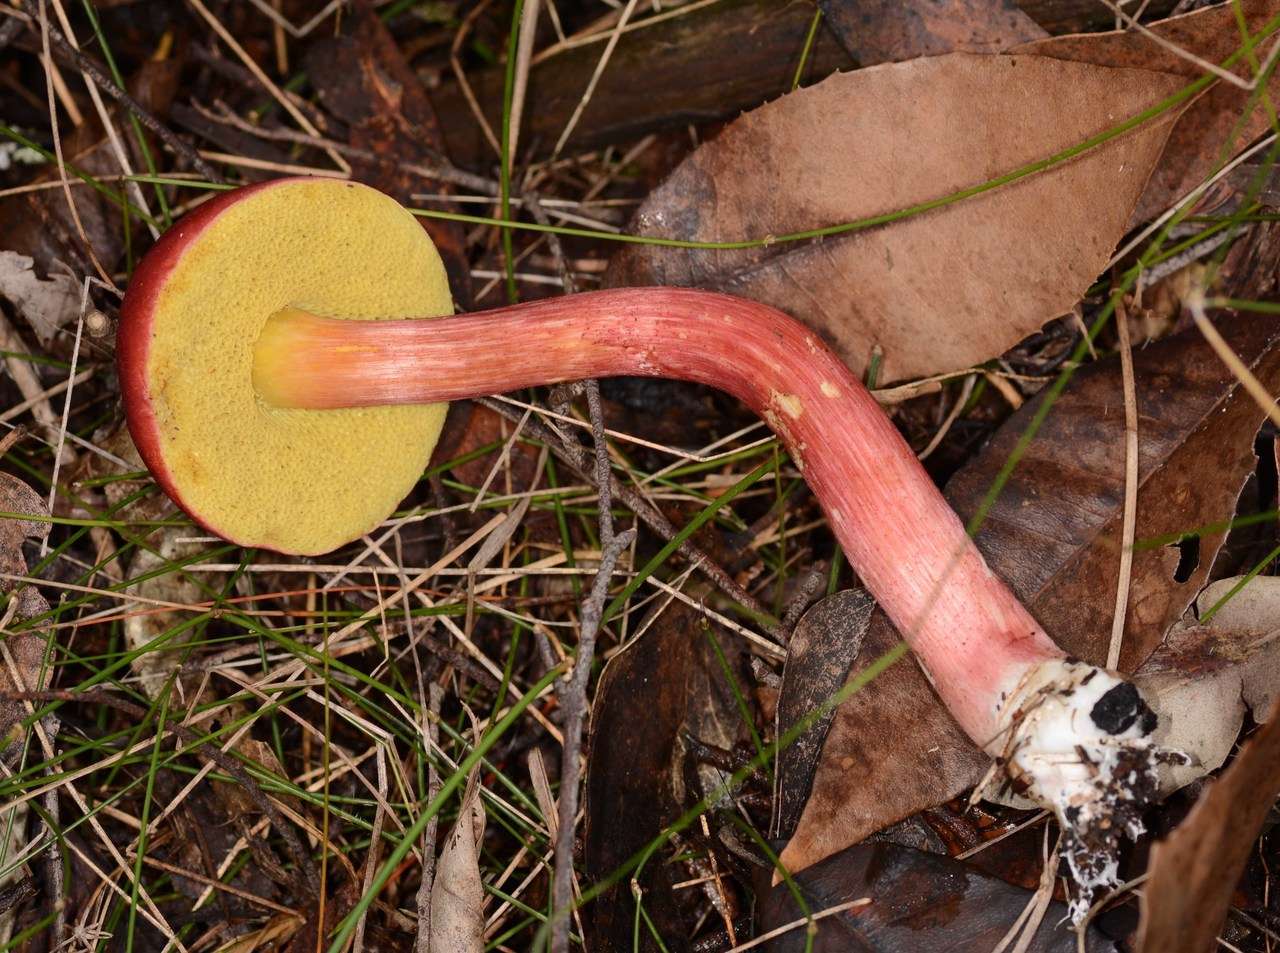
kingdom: Fungi
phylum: Basidiomycota
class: Agaricomycetes
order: Boletales
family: Boletaceae
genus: Boletellus
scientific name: Boletellus obscurecoccineus
